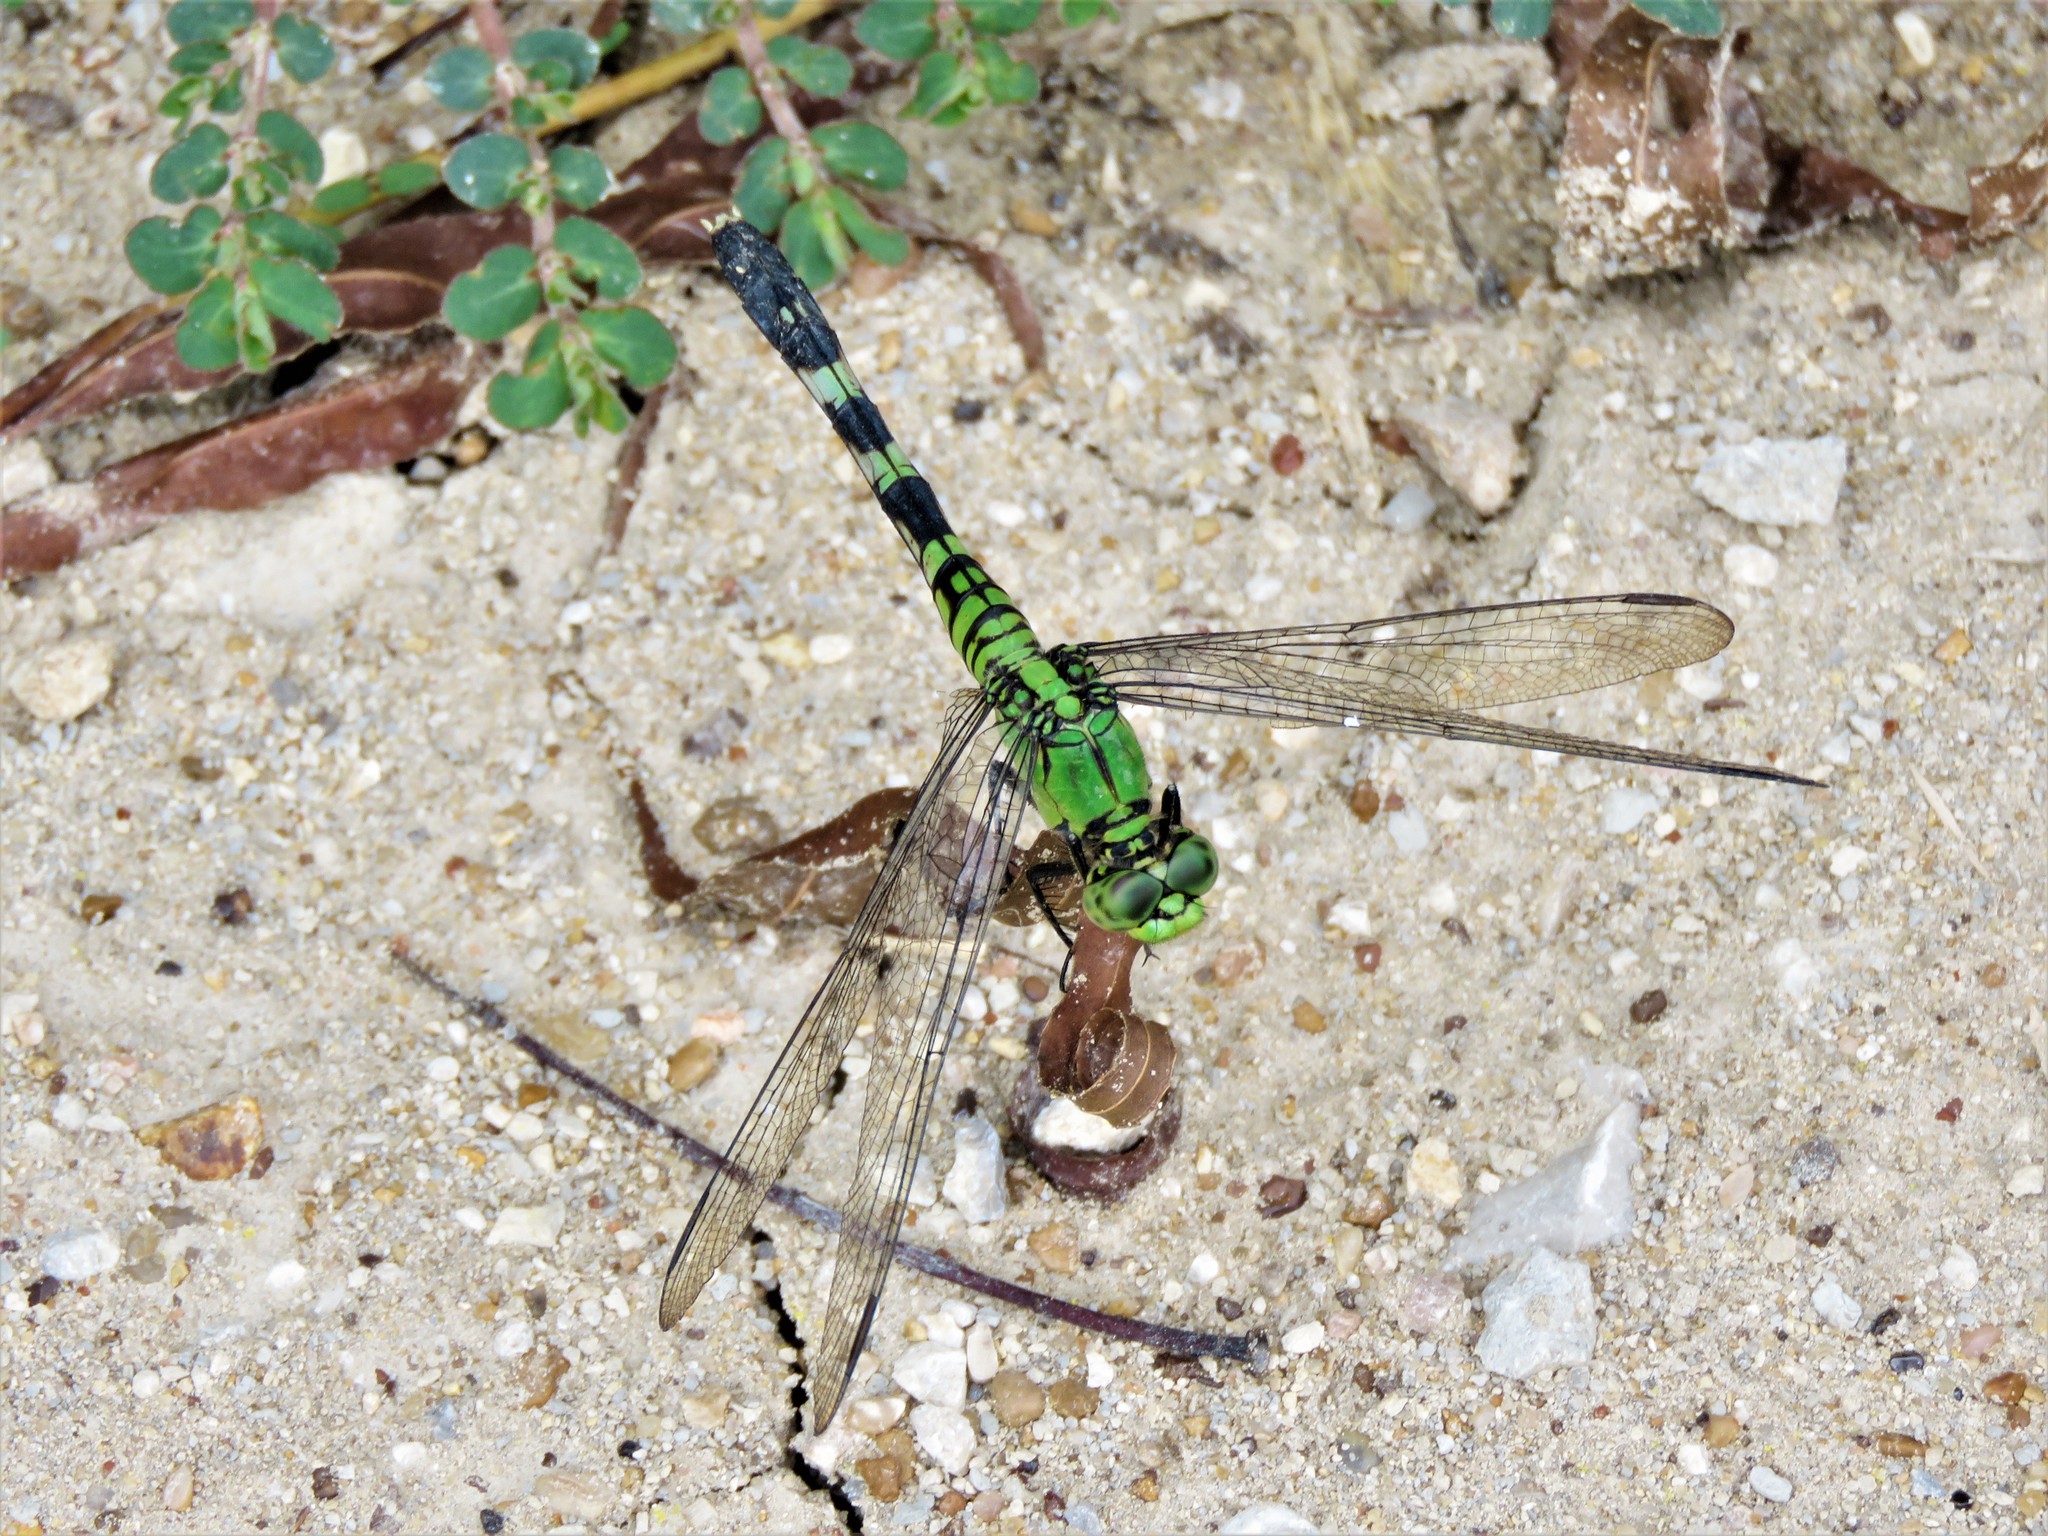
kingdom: Animalia
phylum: Arthropoda
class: Insecta
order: Odonata
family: Libellulidae
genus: Erythemis
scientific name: Erythemis simplicicollis
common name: Eastern pondhawk
